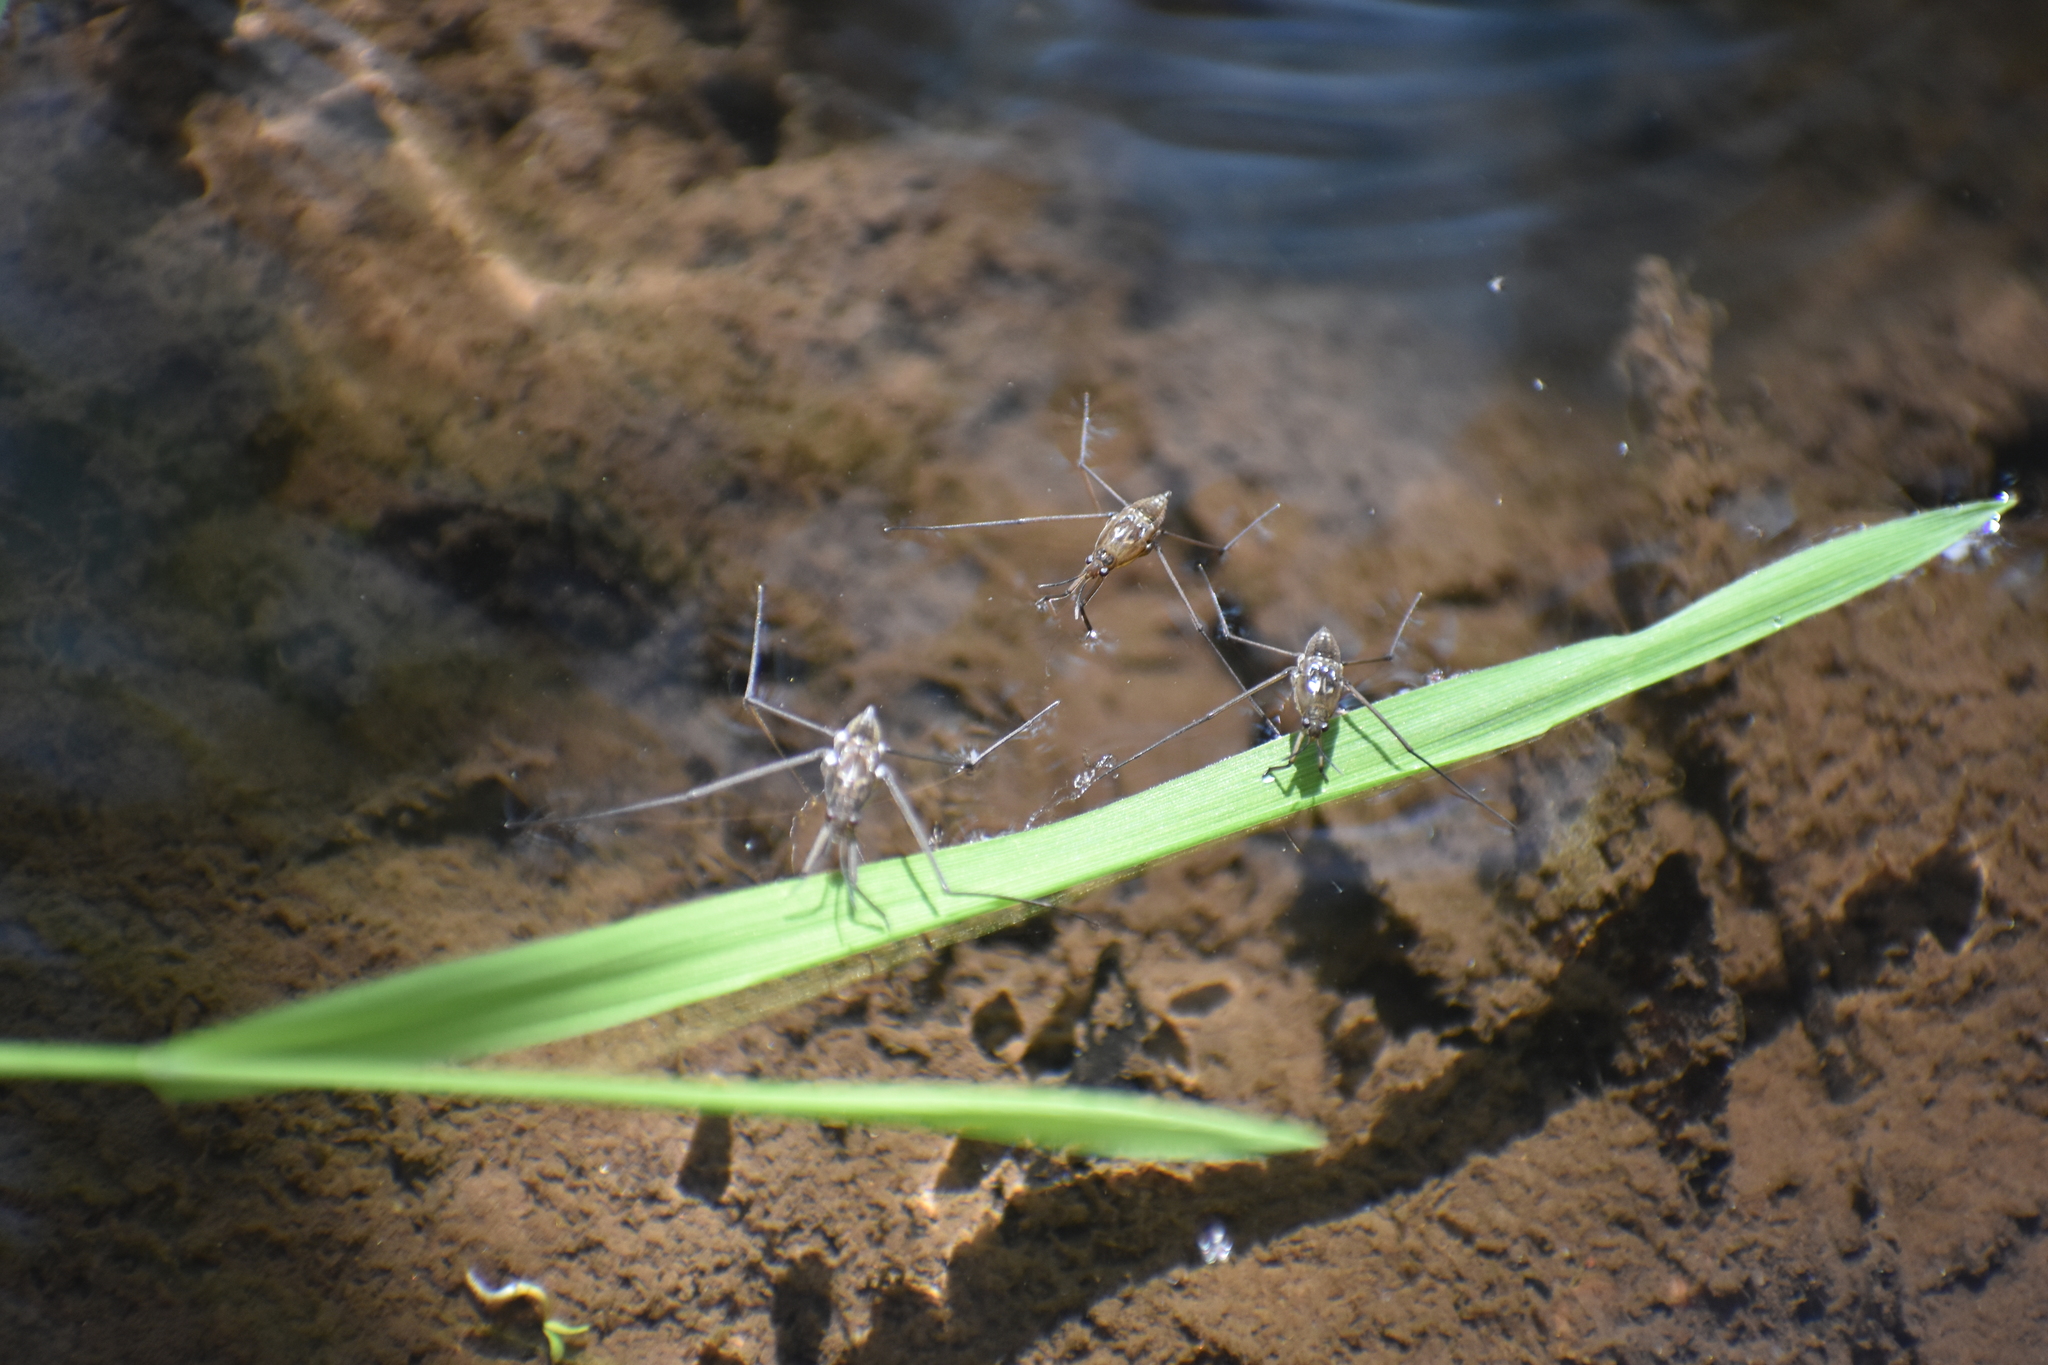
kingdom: Animalia
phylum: Arthropoda
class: Insecta
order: Hemiptera
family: Gerridae
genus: Aquarius
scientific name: Aquarius remigis
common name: Common water strider
